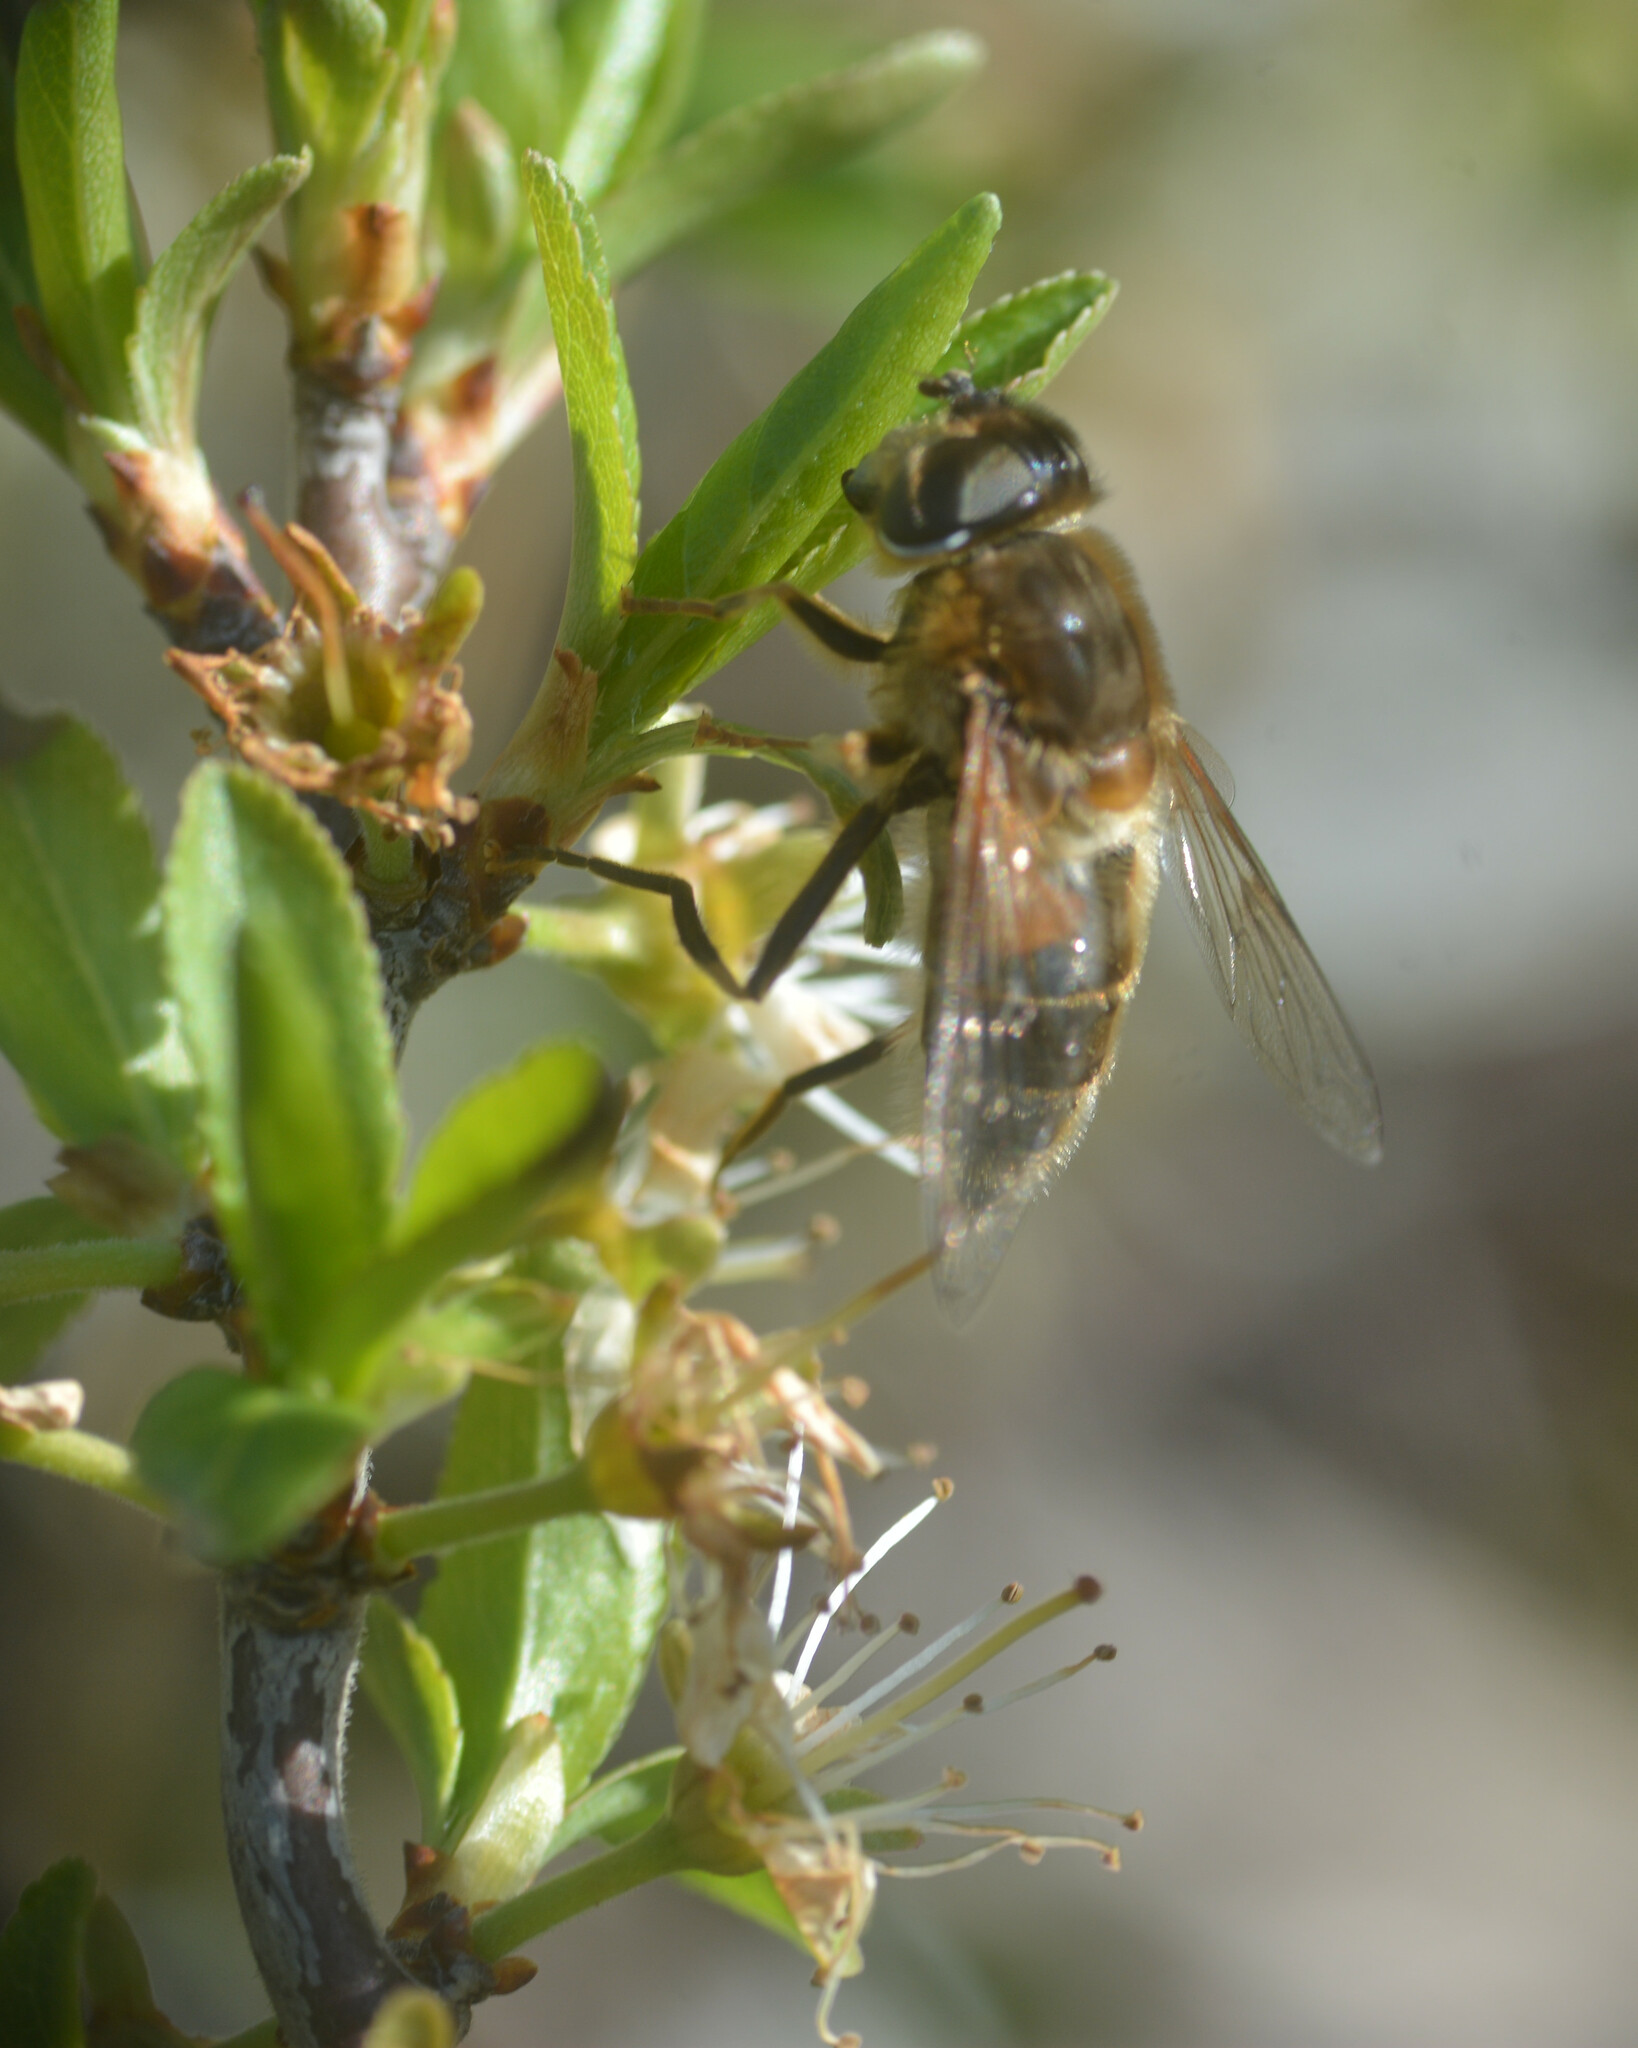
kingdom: Animalia
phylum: Arthropoda
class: Insecta
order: Diptera
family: Syrphidae
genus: Eristalis
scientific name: Eristalis pertinax
